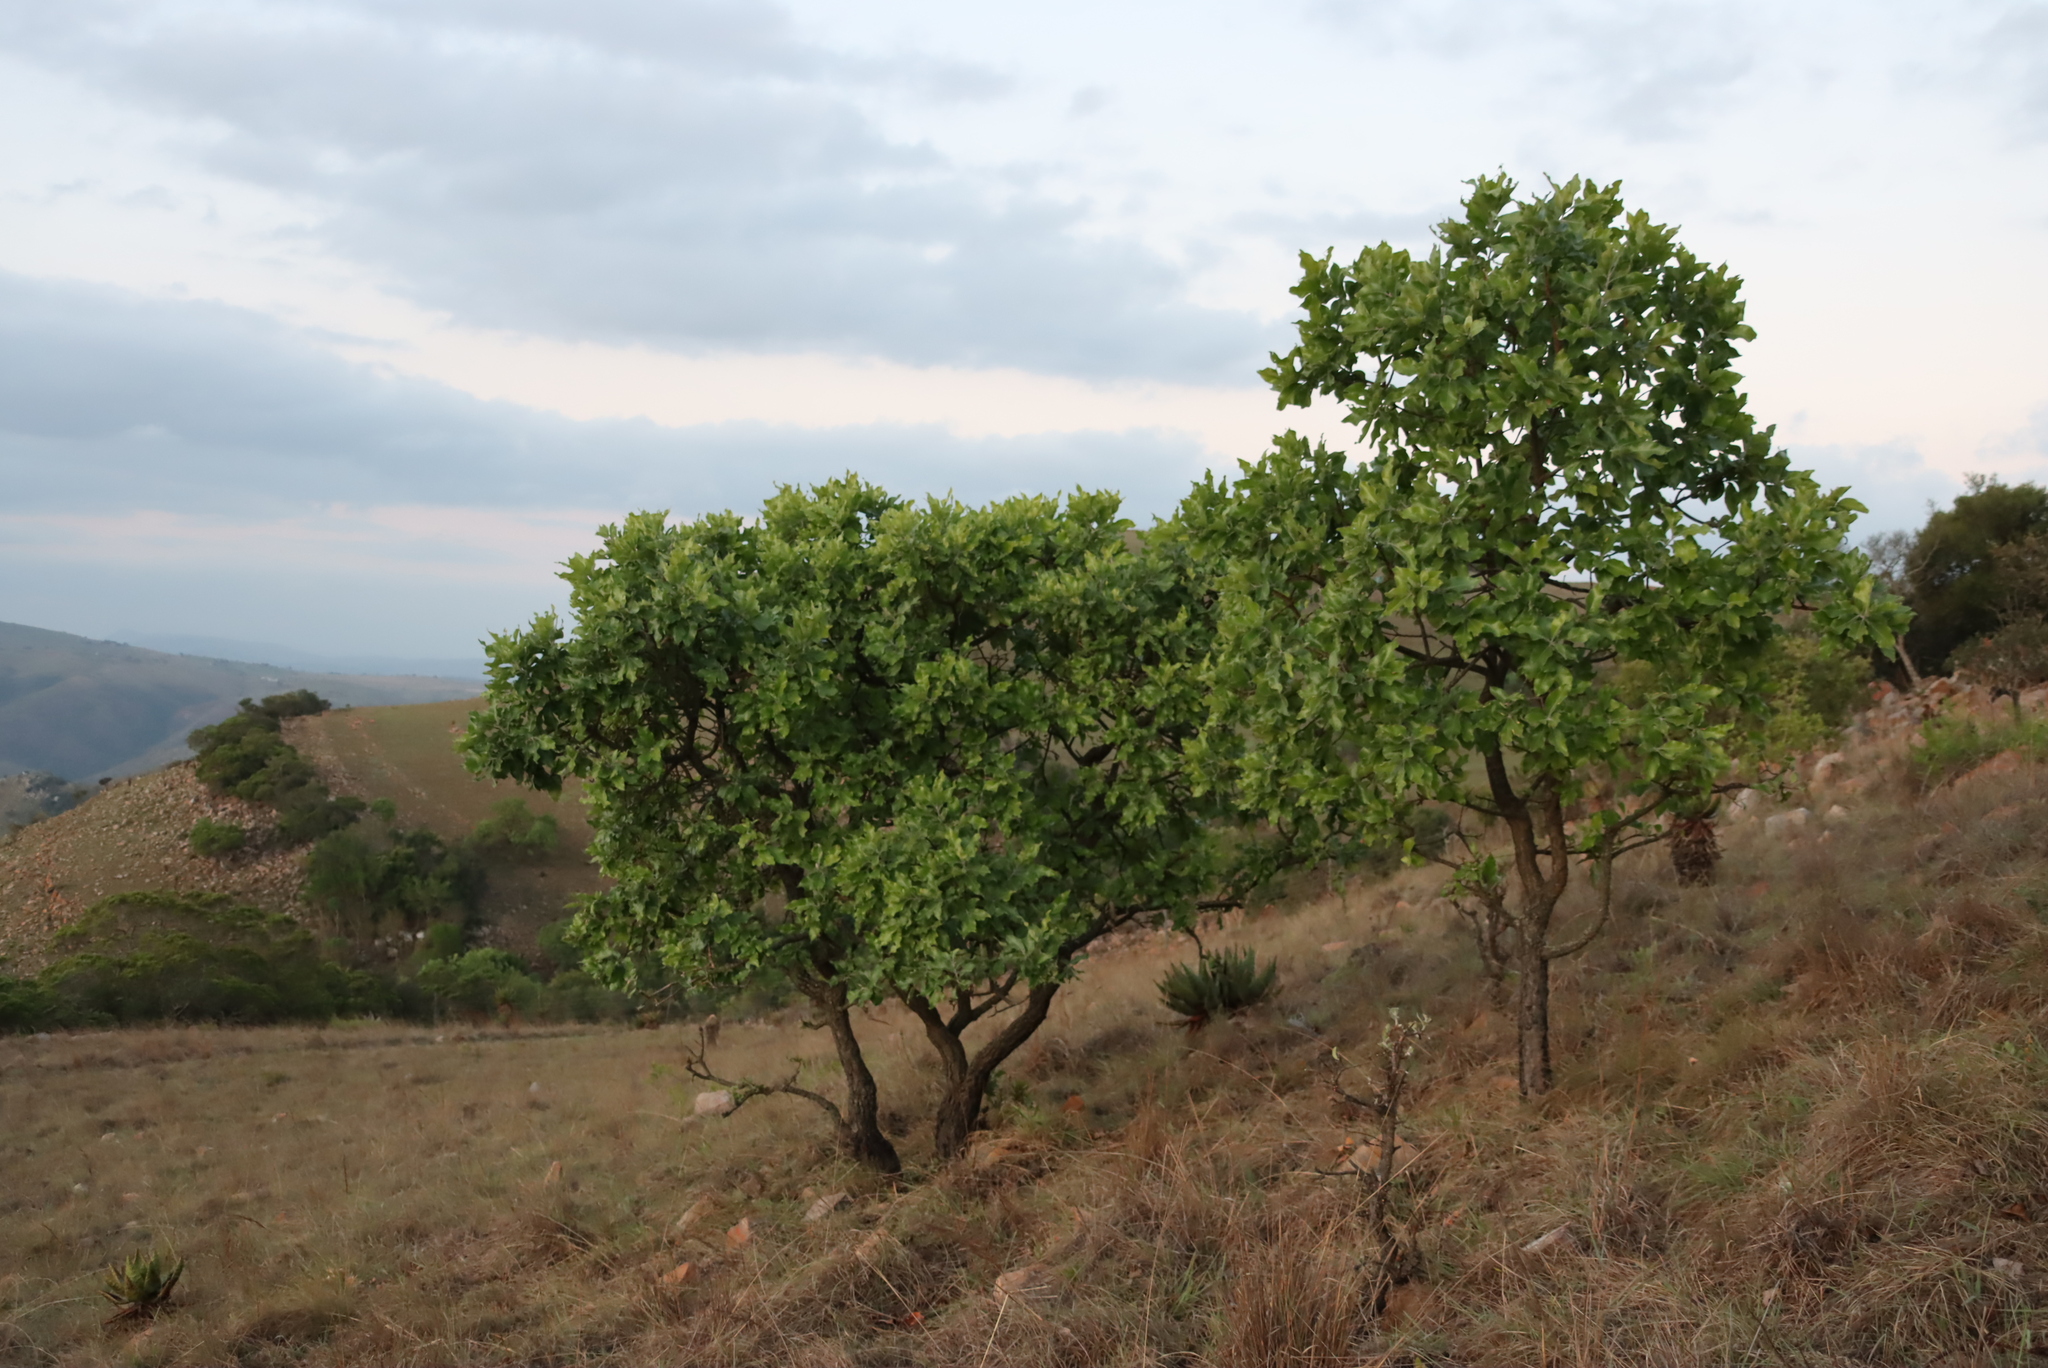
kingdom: Plantae
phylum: Tracheophyta
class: Magnoliopsida
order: Proteales
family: Proteaceae
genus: Faurea
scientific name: Faurea rochetiana
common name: Broad-leaved beech
